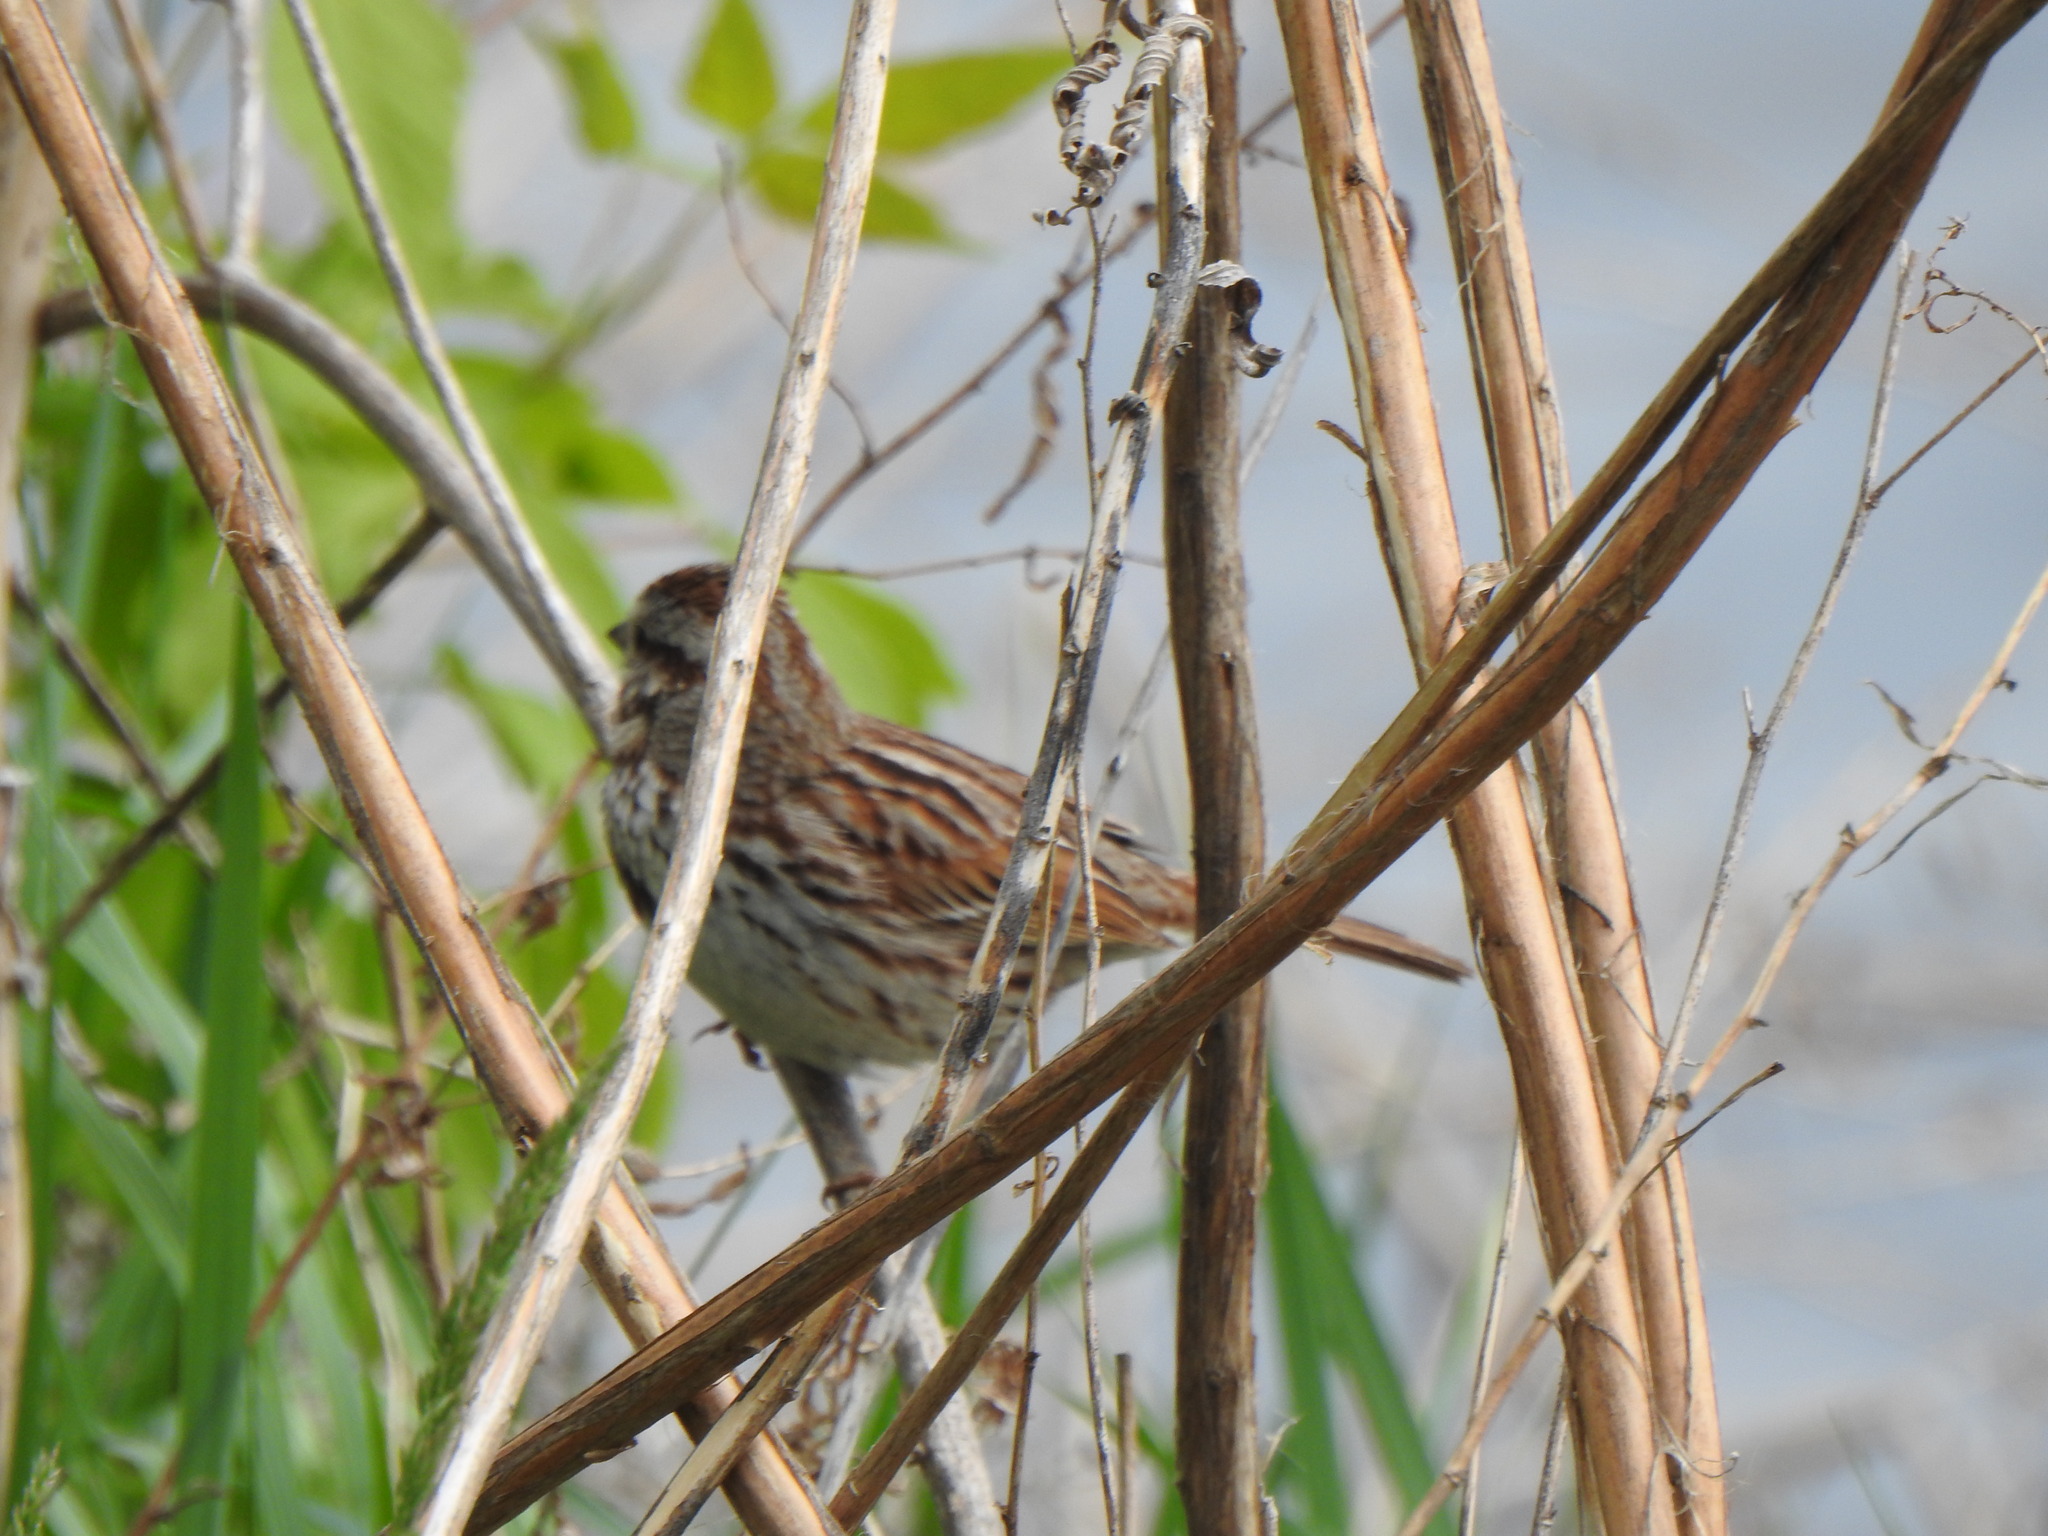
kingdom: Animalia
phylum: Chordata
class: Aves
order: Passeriformes
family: Passerellidae
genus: Melospiza
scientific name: Melospiza melodia
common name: Song sparrow
